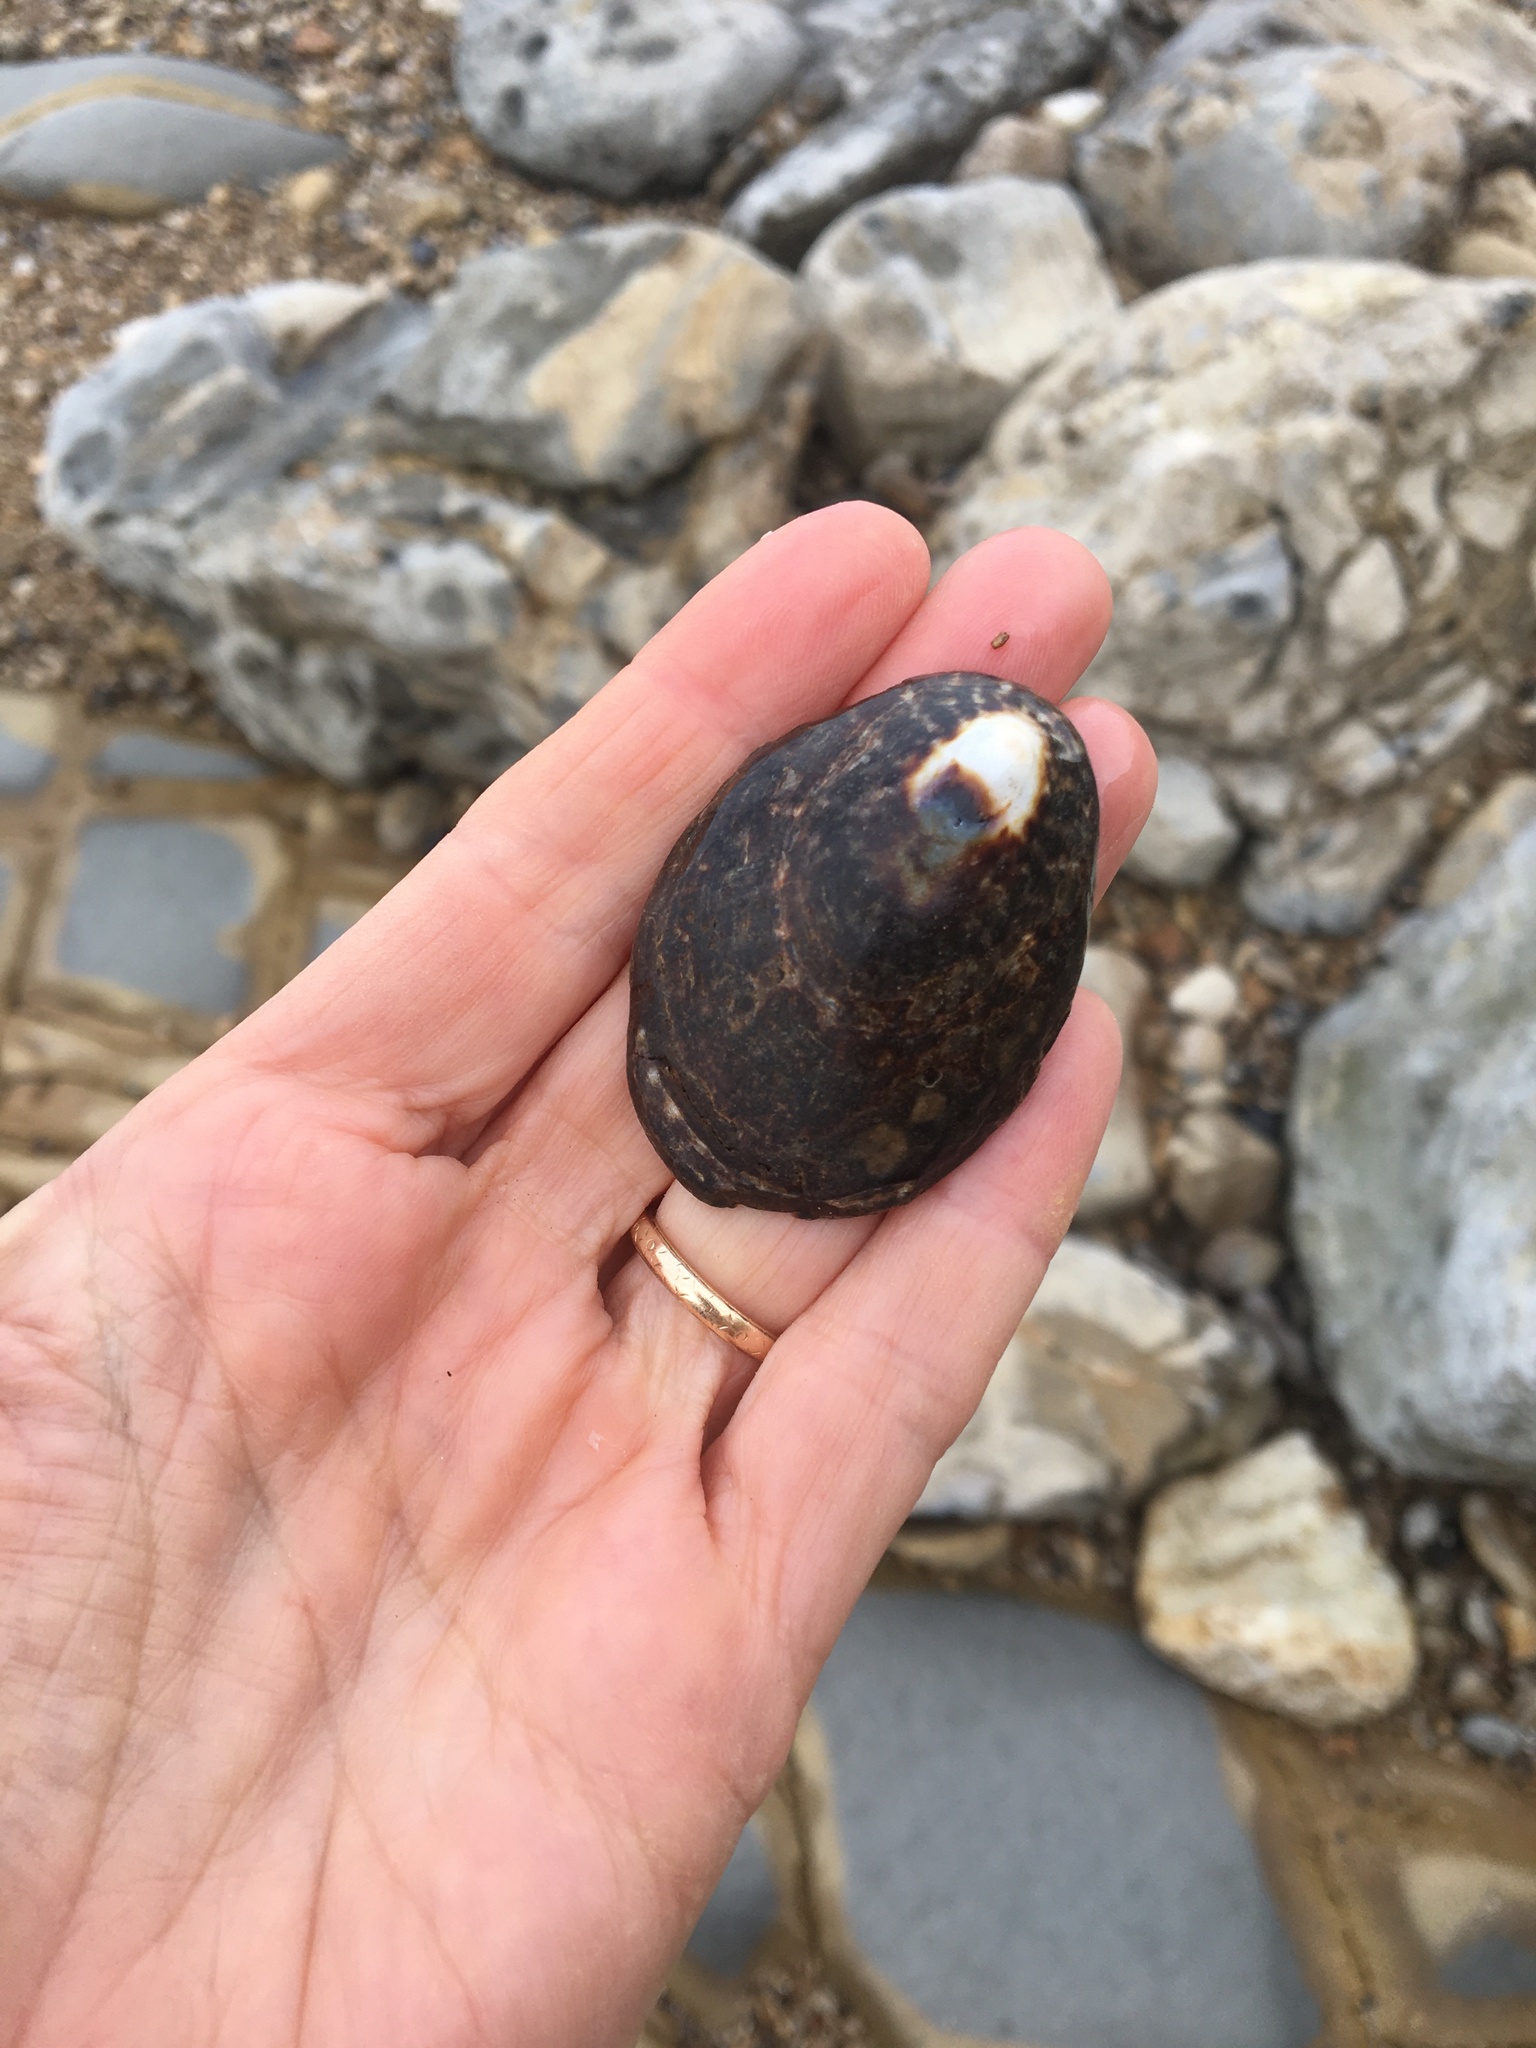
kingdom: Animalia
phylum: Mollusca
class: Gastropoda
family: Lottiidae
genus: Lottia
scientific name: Lottia gigantea
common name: Owl limpet
